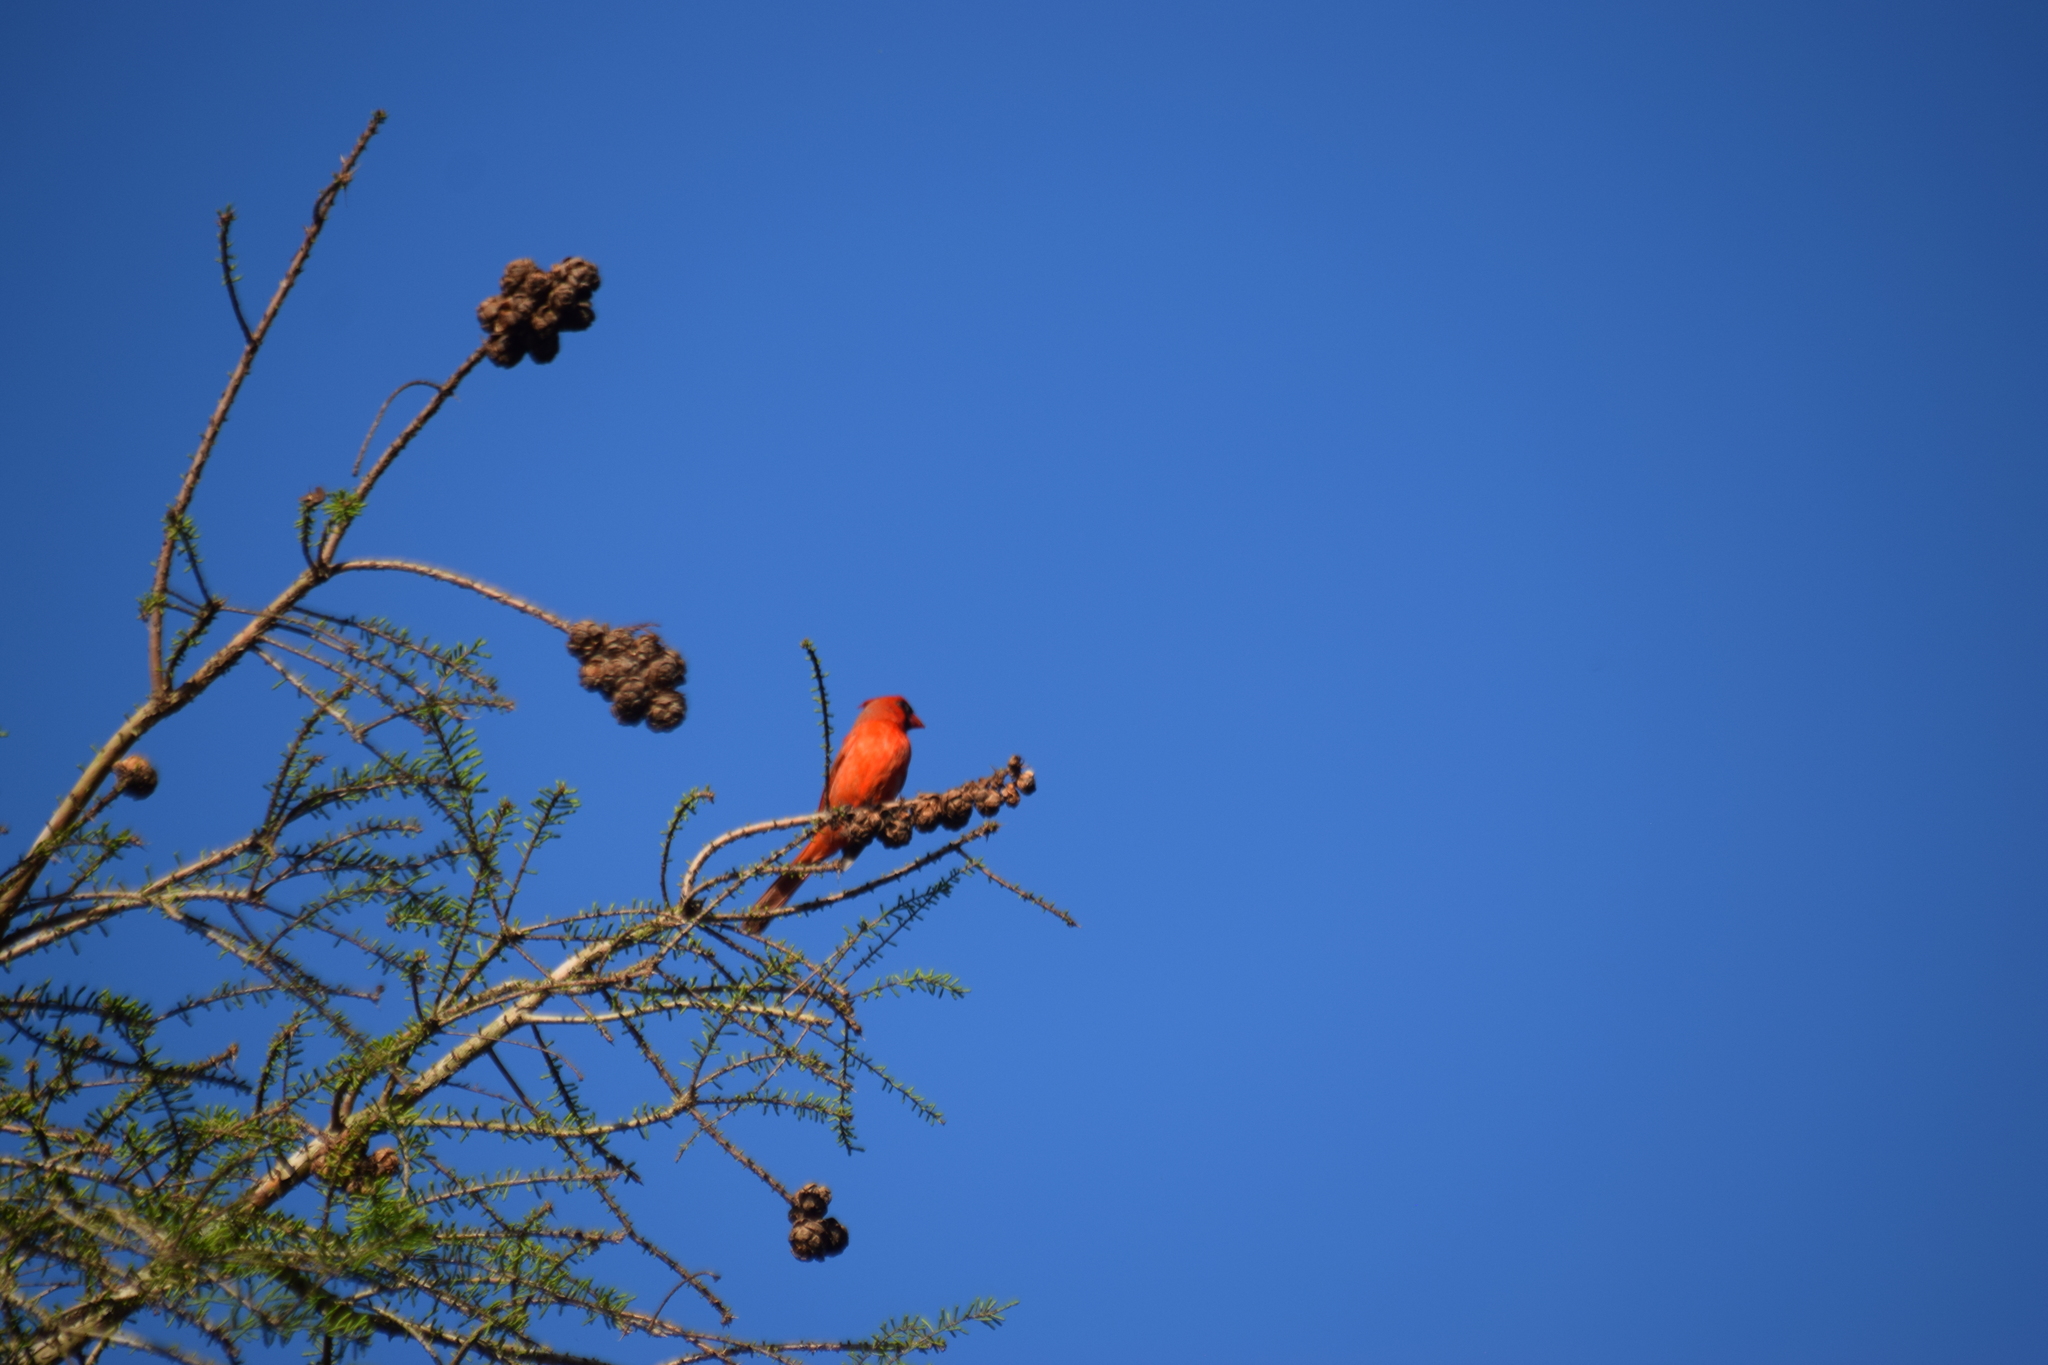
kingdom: Animalia
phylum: Chordata
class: Aves
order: Passeriformes
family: Cardinalidae
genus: Cardinalis
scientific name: Cardinalis cardinalis
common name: Northern cardinal
